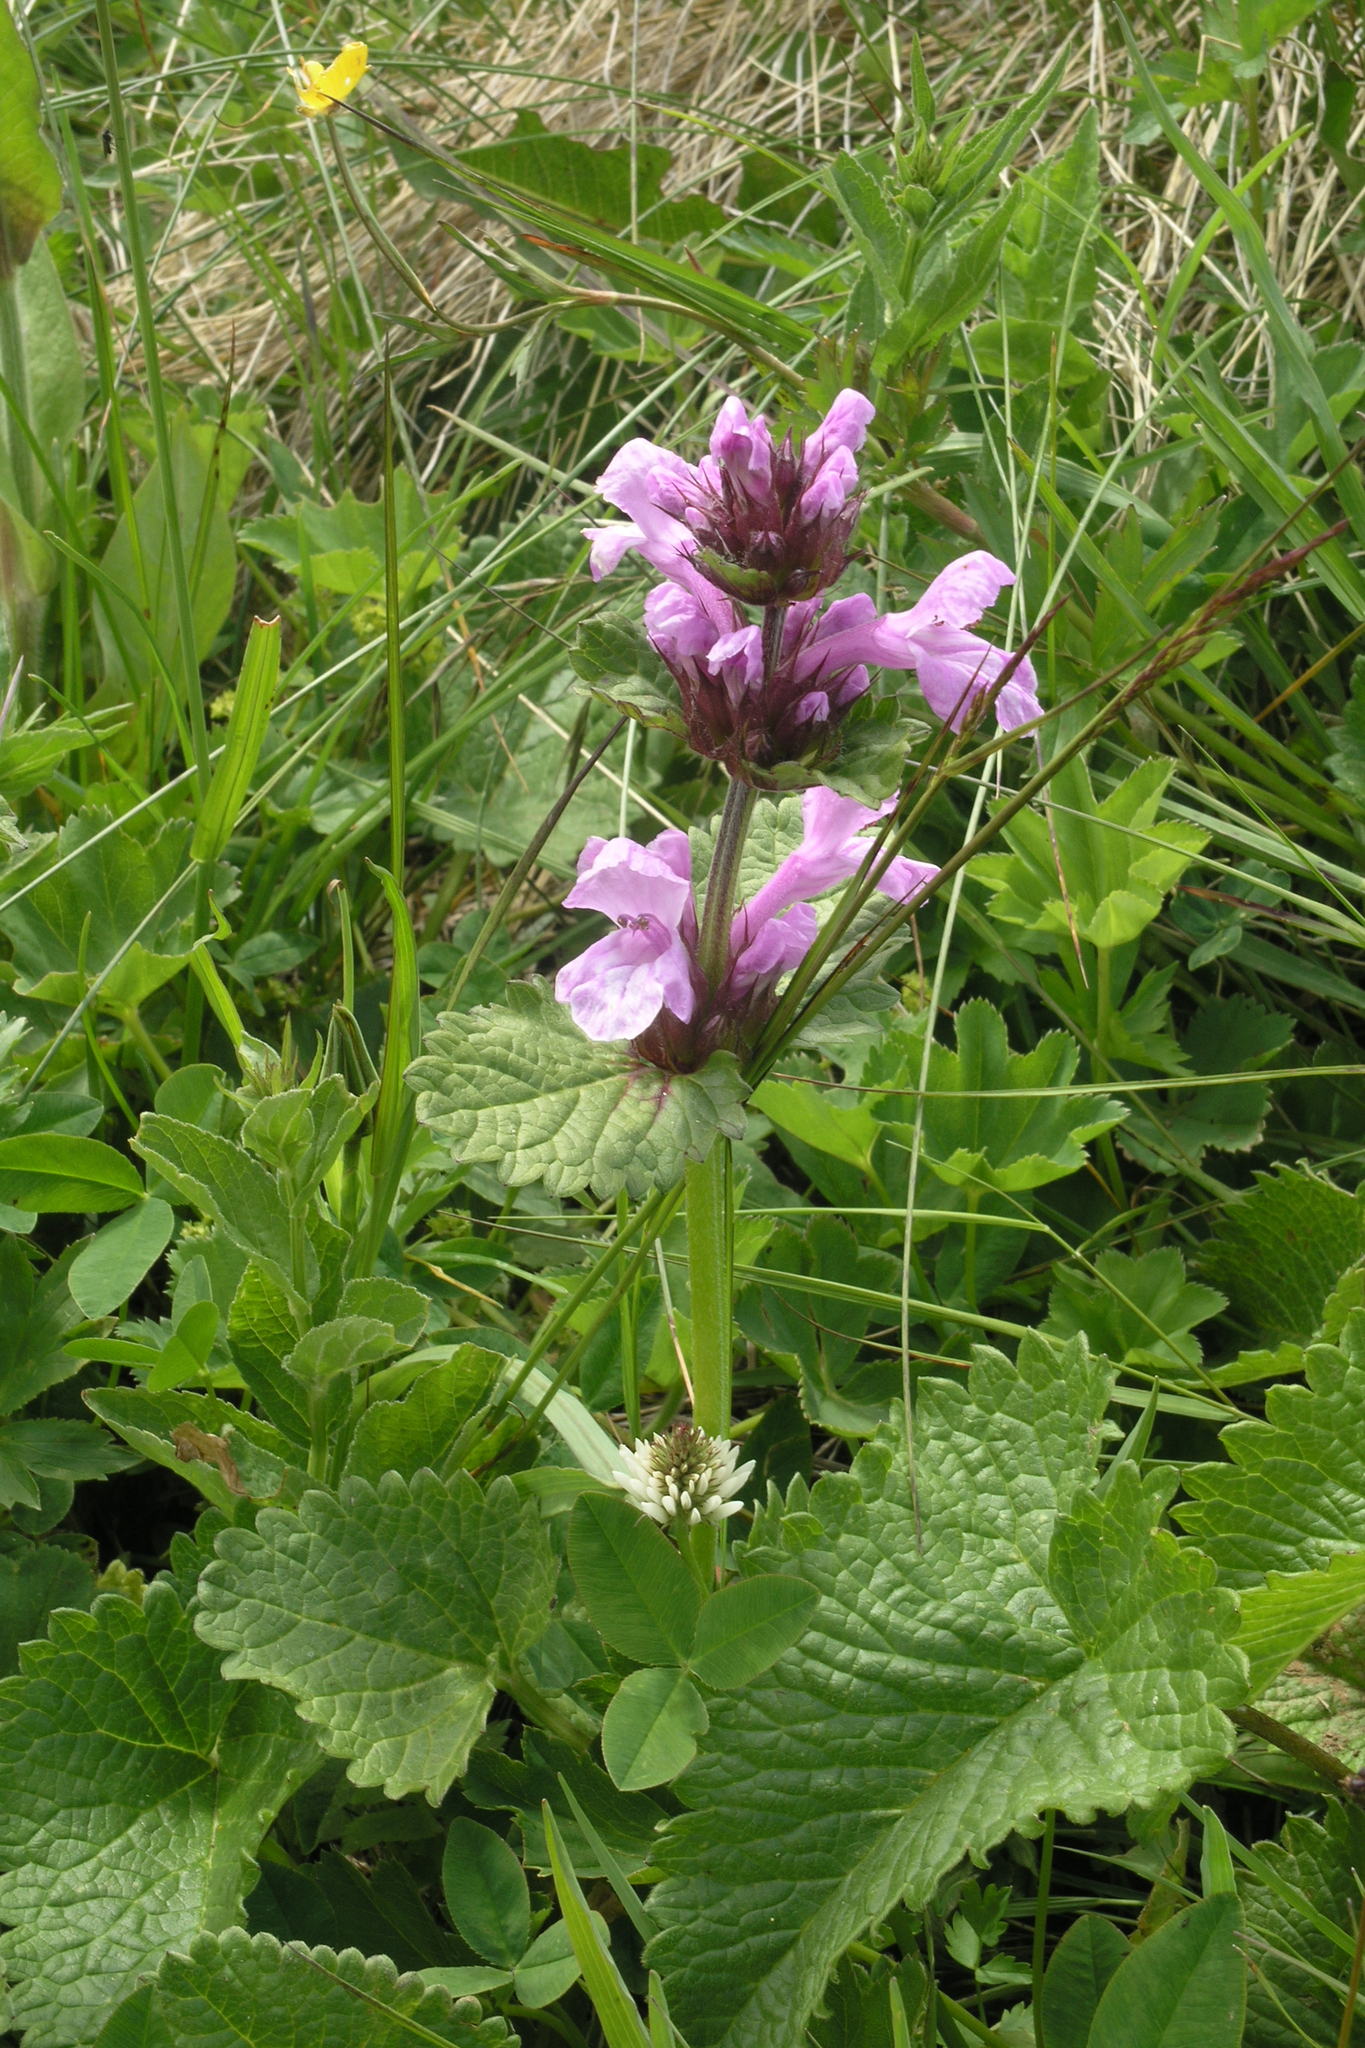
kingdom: Plantae
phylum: Tracheophyta
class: Magnoliopsida
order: Lamiales
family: Lamiaceae
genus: Betonica
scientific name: Betonica macrantha
